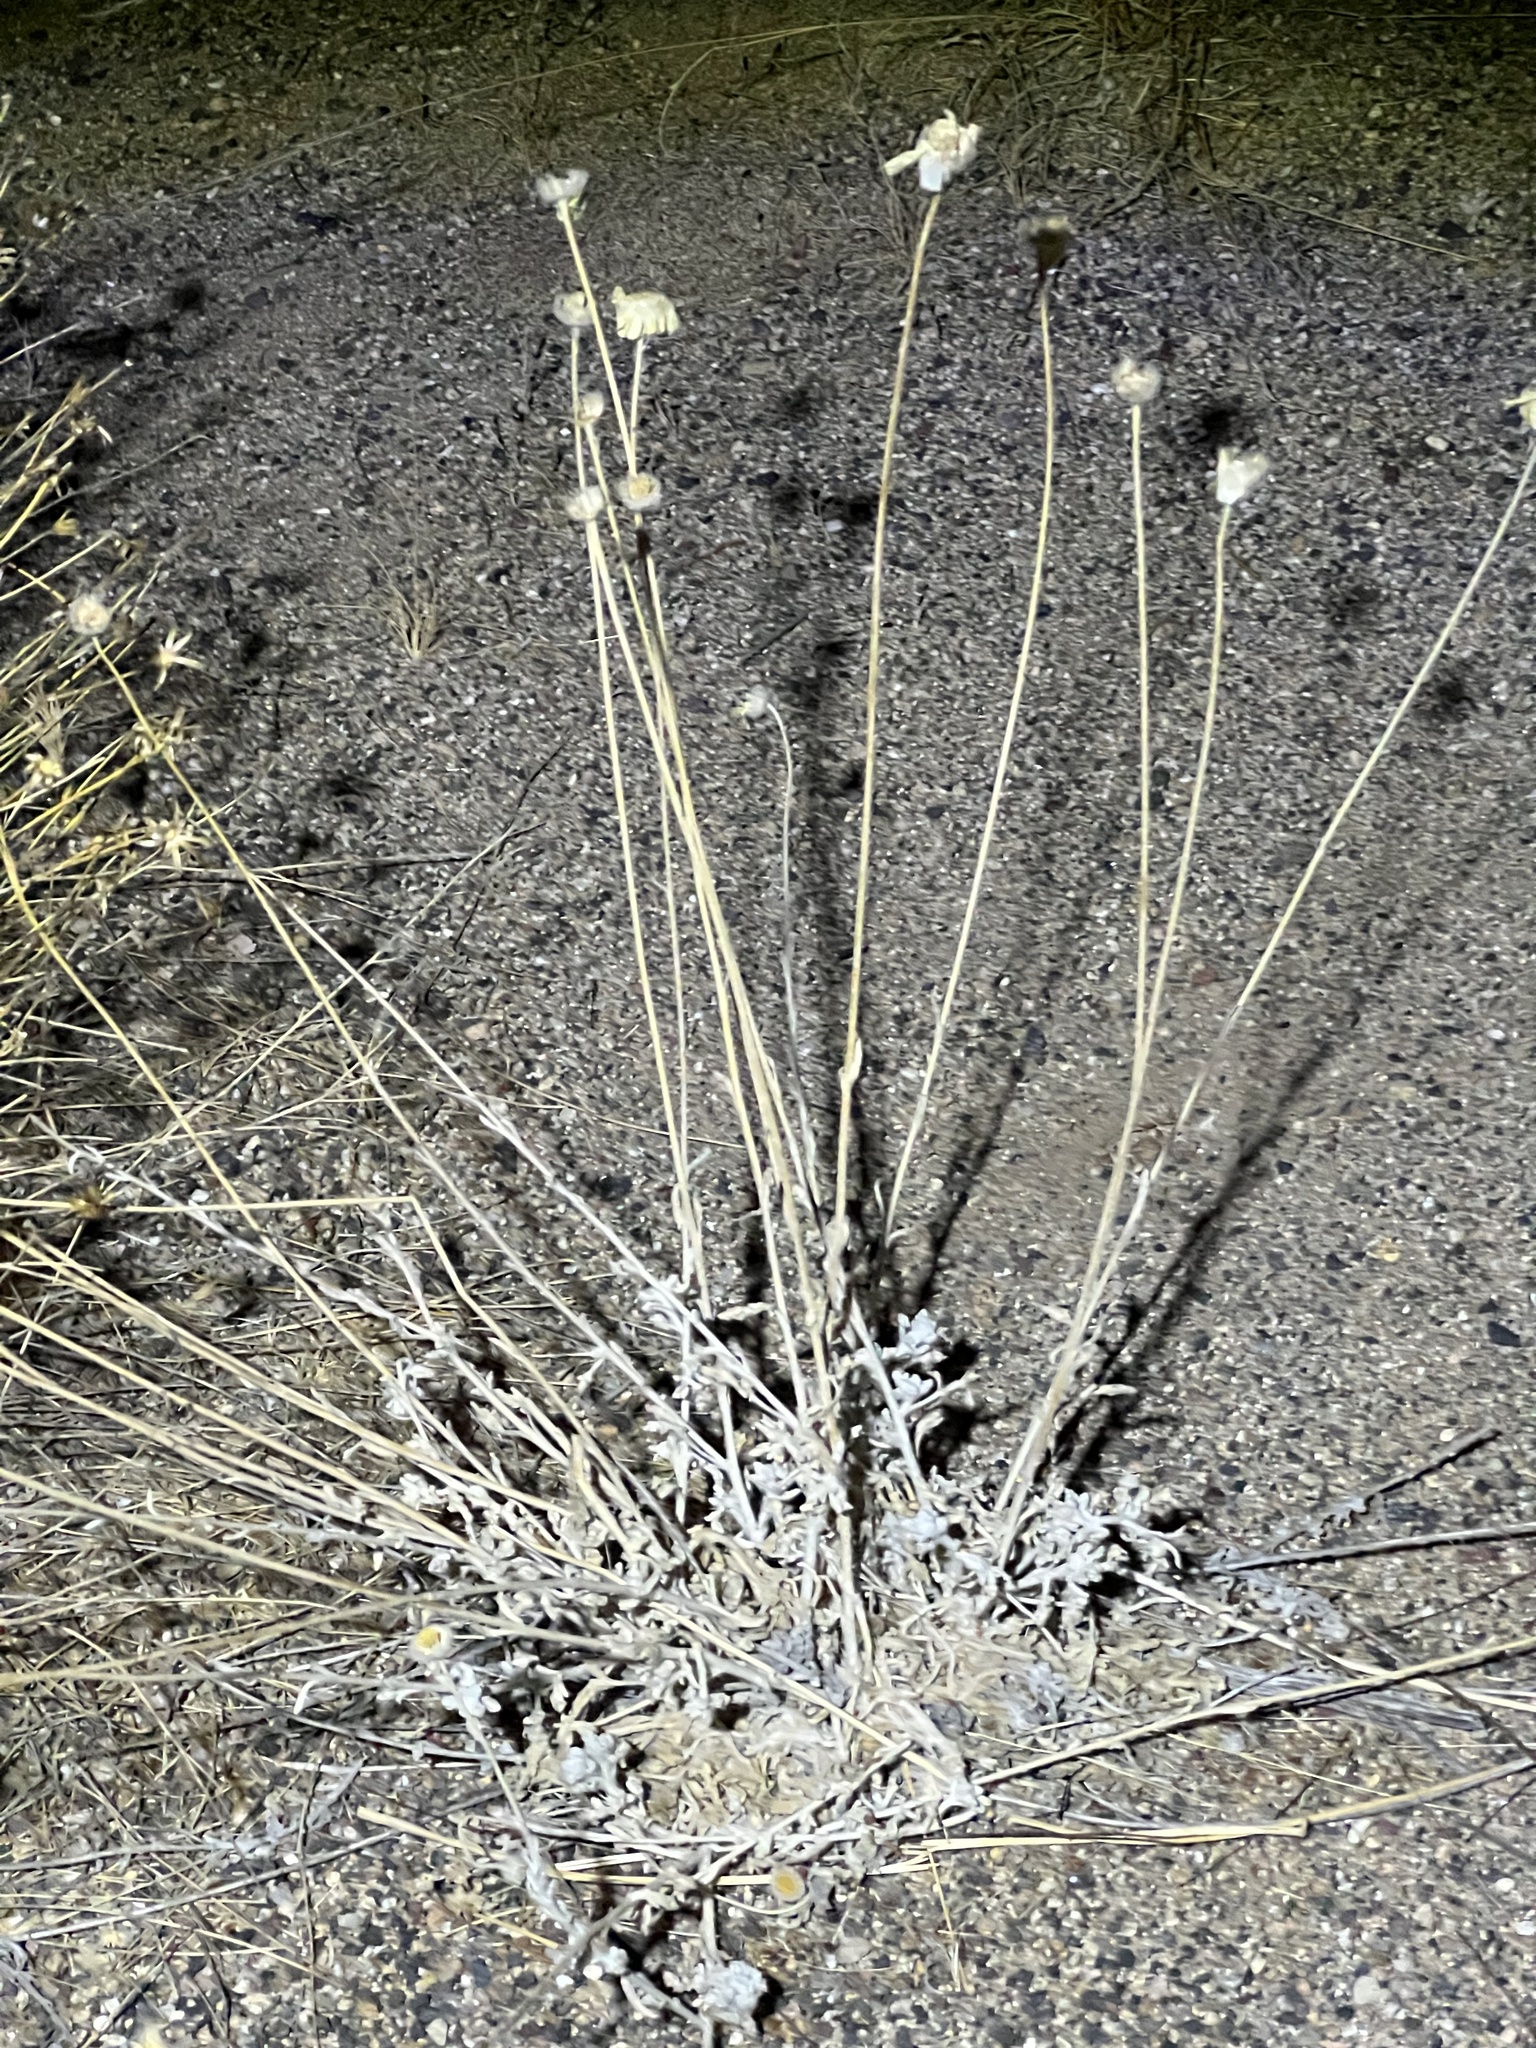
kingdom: Plantae
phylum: Tracheophyta
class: Magnoliopsida
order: Asterales
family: Asteraceae
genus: Baileya
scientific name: Baileya multiradiata
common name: Desert-marigold
